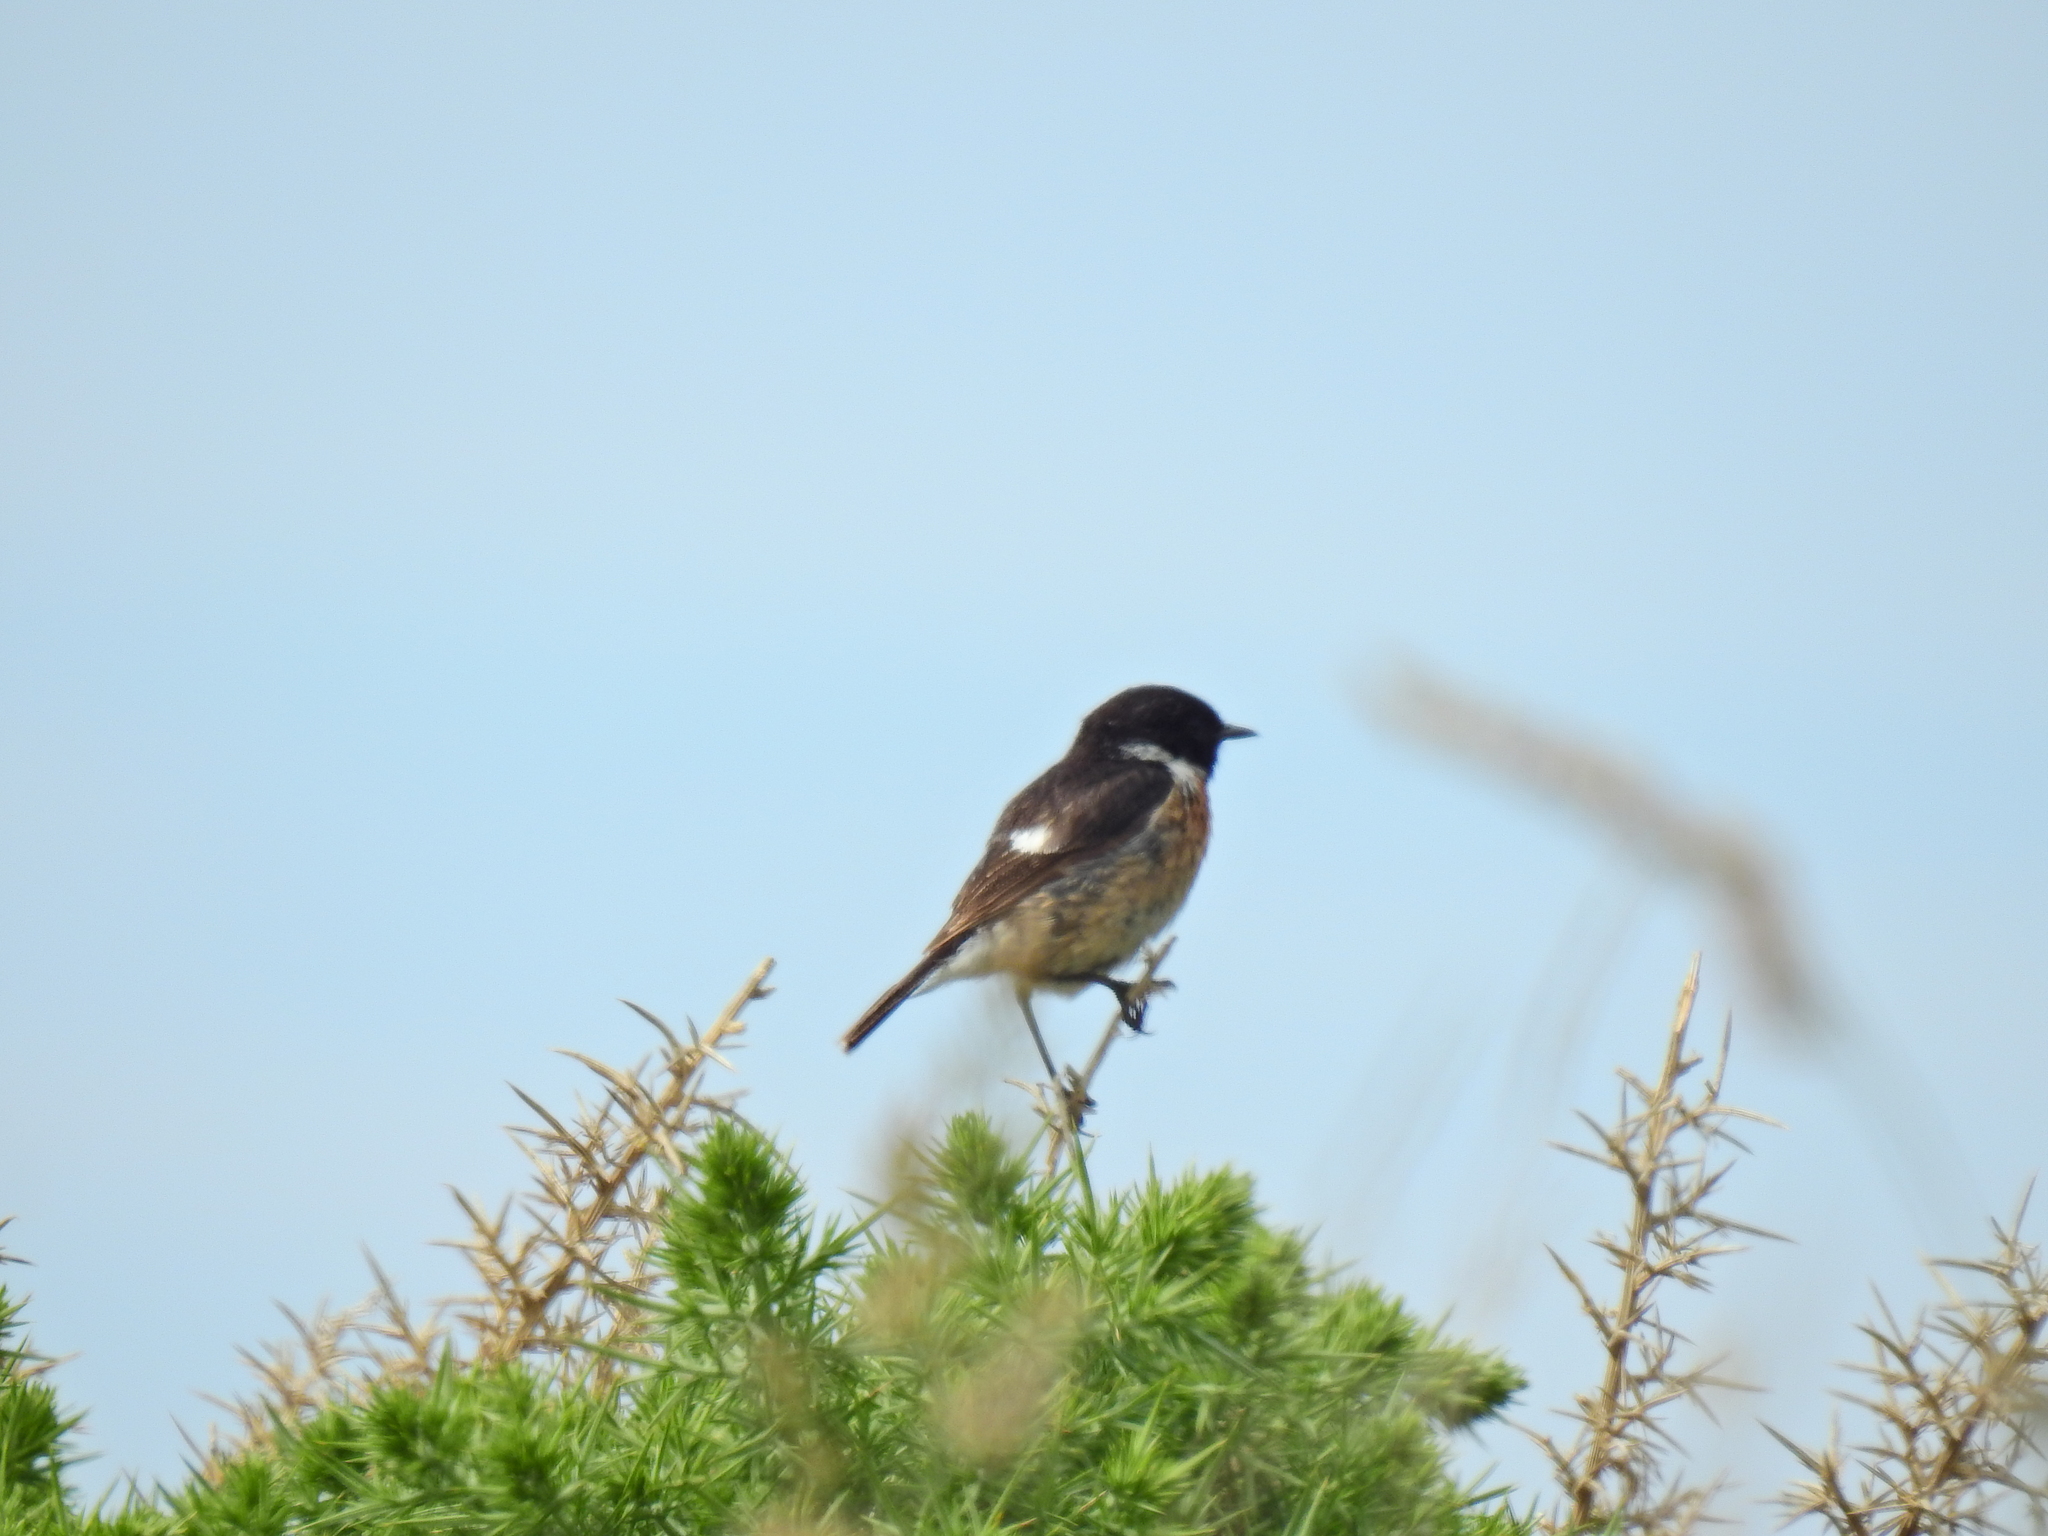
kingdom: Animalia
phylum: Chordata
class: Aves
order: Passeriformes
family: Muscicapidae
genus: Saxicola
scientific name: Saxicola rubicola
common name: European stonechat
